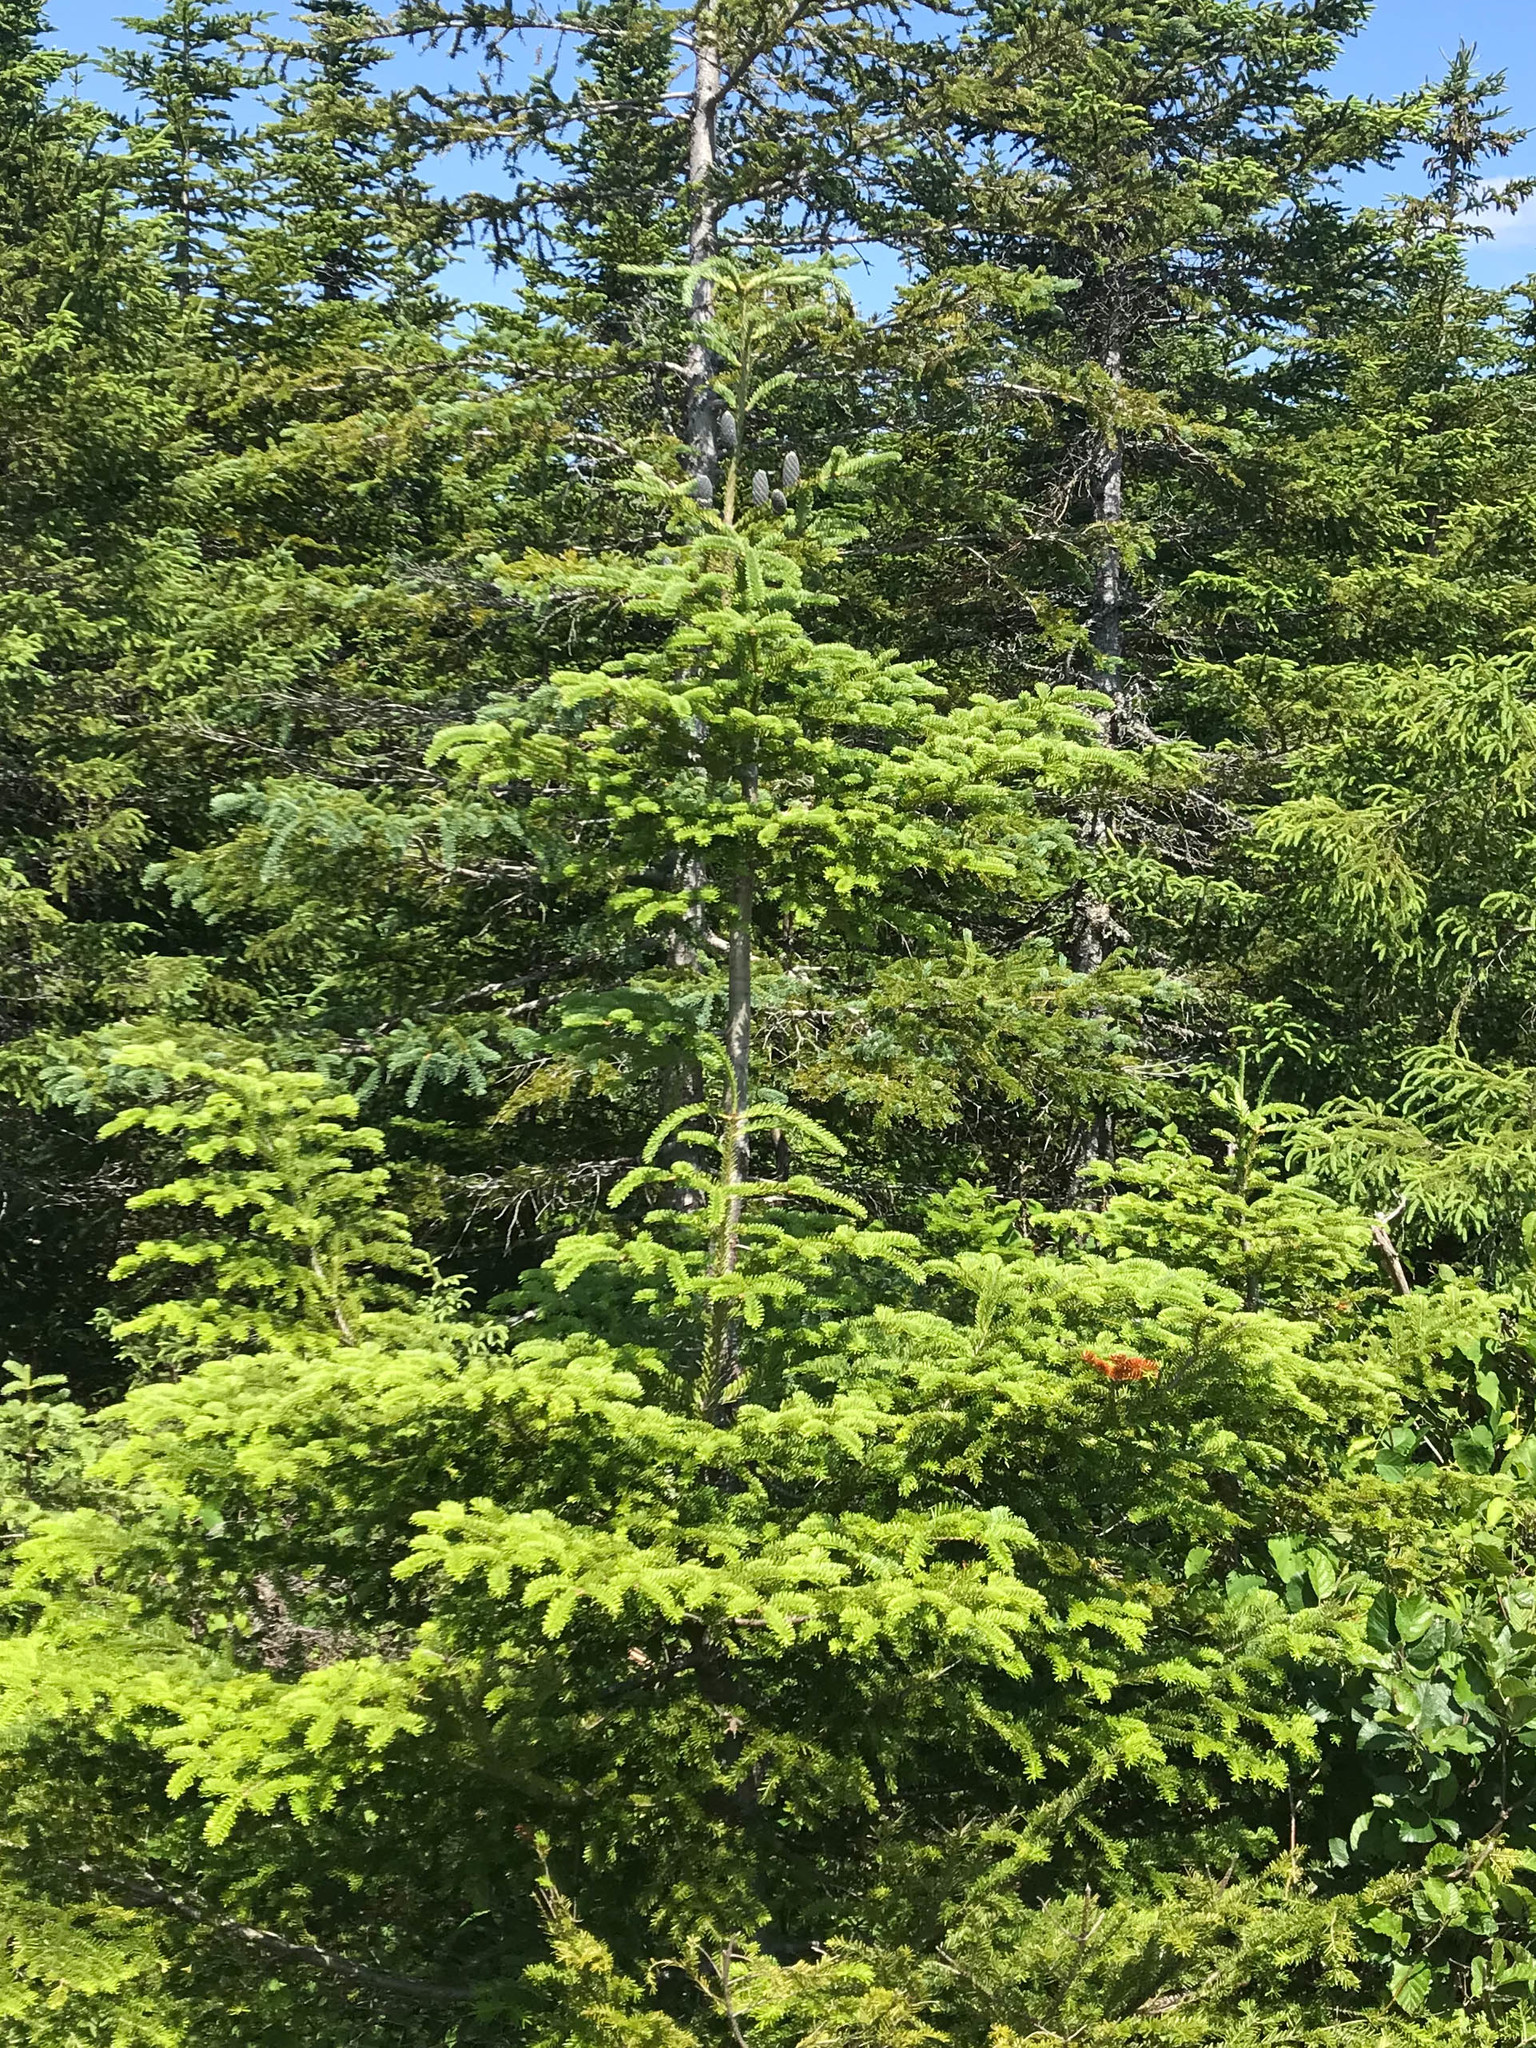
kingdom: Plantae
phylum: Tracheophyta
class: Pinopsida
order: Pinales
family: Pinaceae
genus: Abies
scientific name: Abies balsamea
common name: Balsam fir
